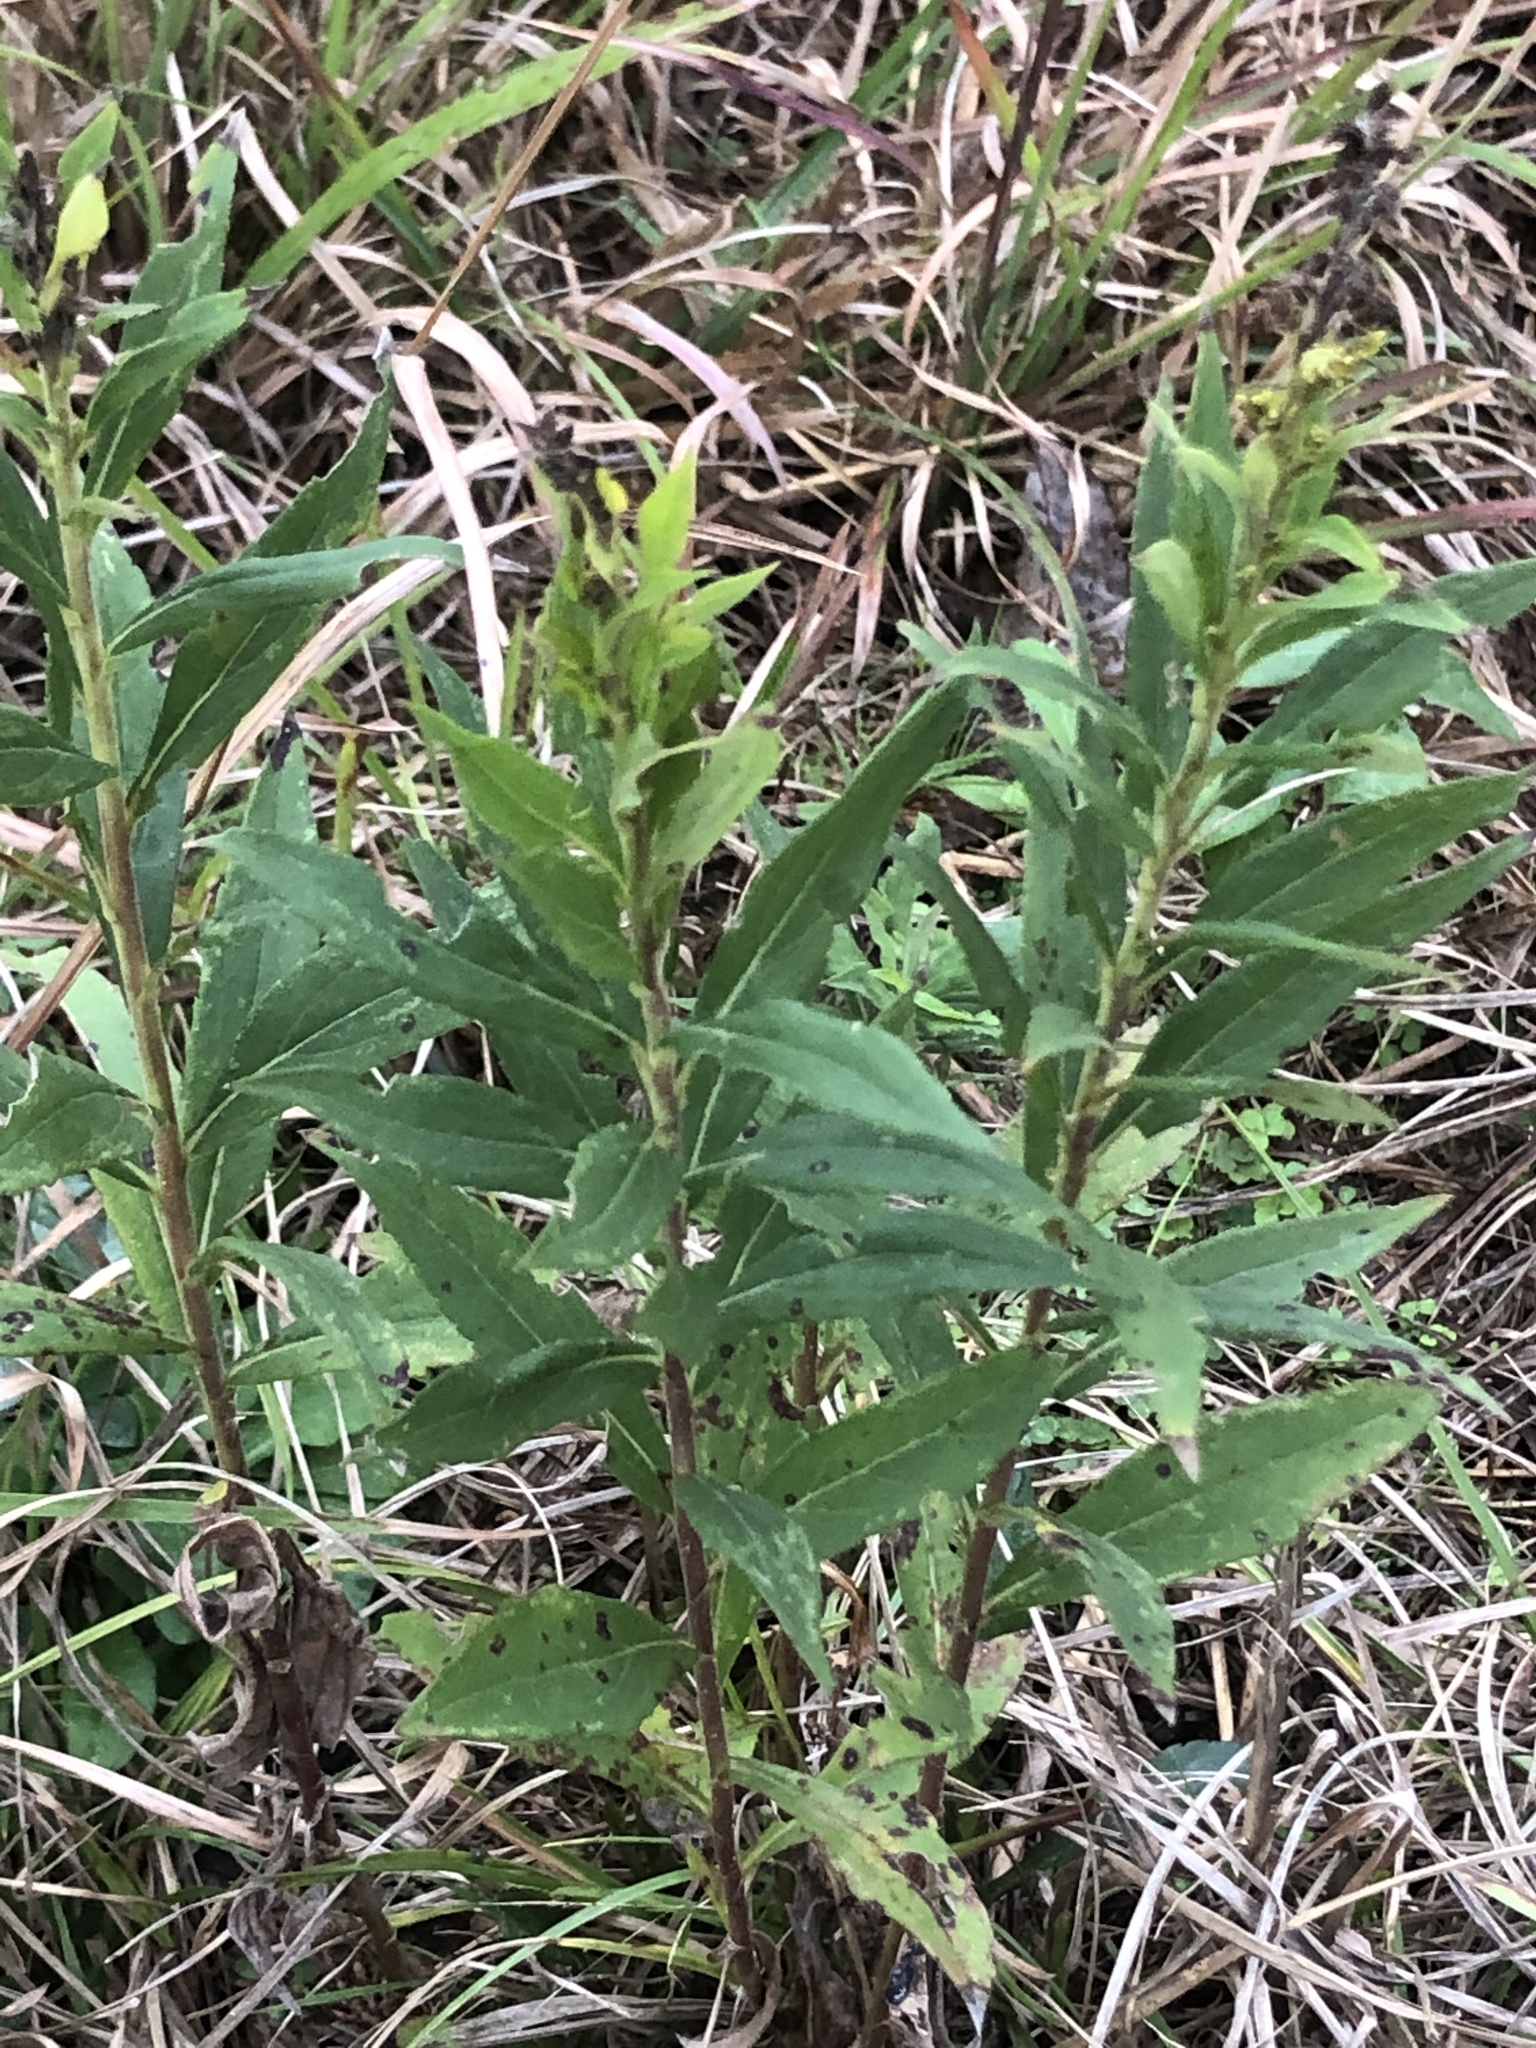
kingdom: Plantae
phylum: Tracheophyta
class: Magnoliopsida
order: Asterales
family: Asteraceae
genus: Solidago
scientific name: Solidago altissima
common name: Late goldenrod
